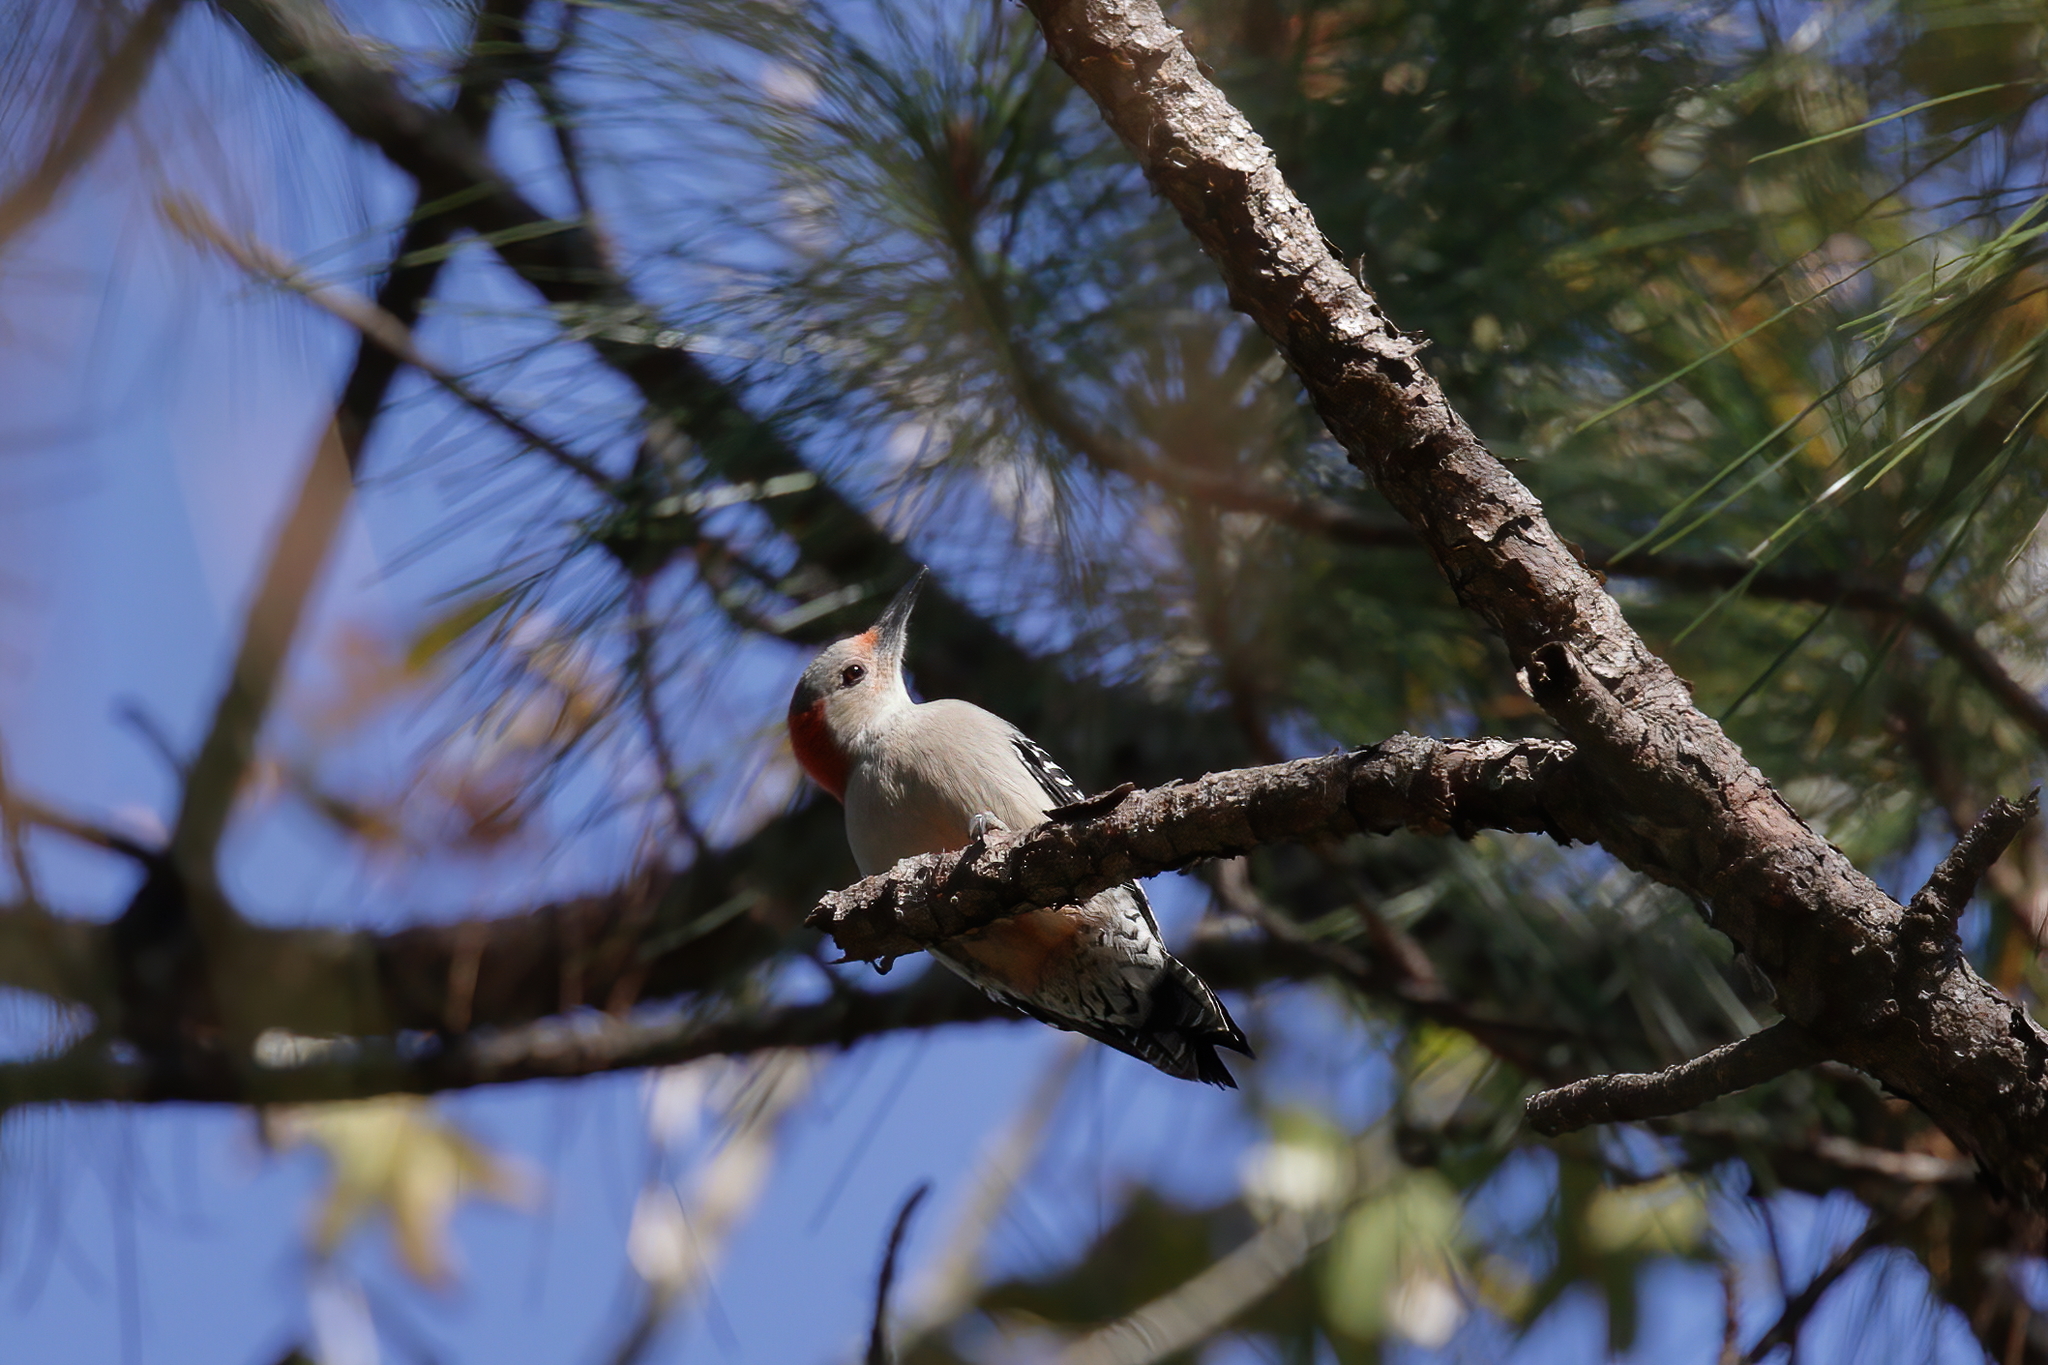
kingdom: Animalia
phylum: Chordata
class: Aves
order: Piciformes
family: Picidae
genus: Melanerpes
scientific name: Melanerpes carolinus
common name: Red-bellied woodpecker
